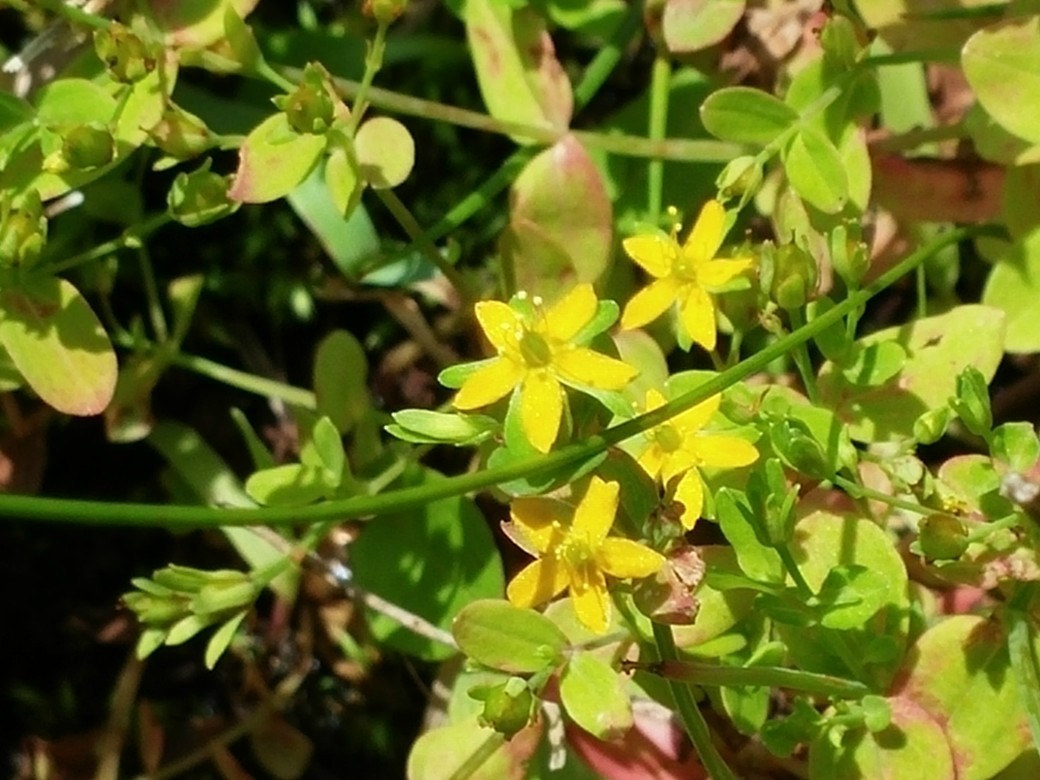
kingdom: Plantae
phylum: Tracheophyta
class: Magnoliopsida
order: Malpighiales
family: Hypericaceae
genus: Hypericum
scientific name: Hypericum mutilum
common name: Dwarf st. john's-wort
